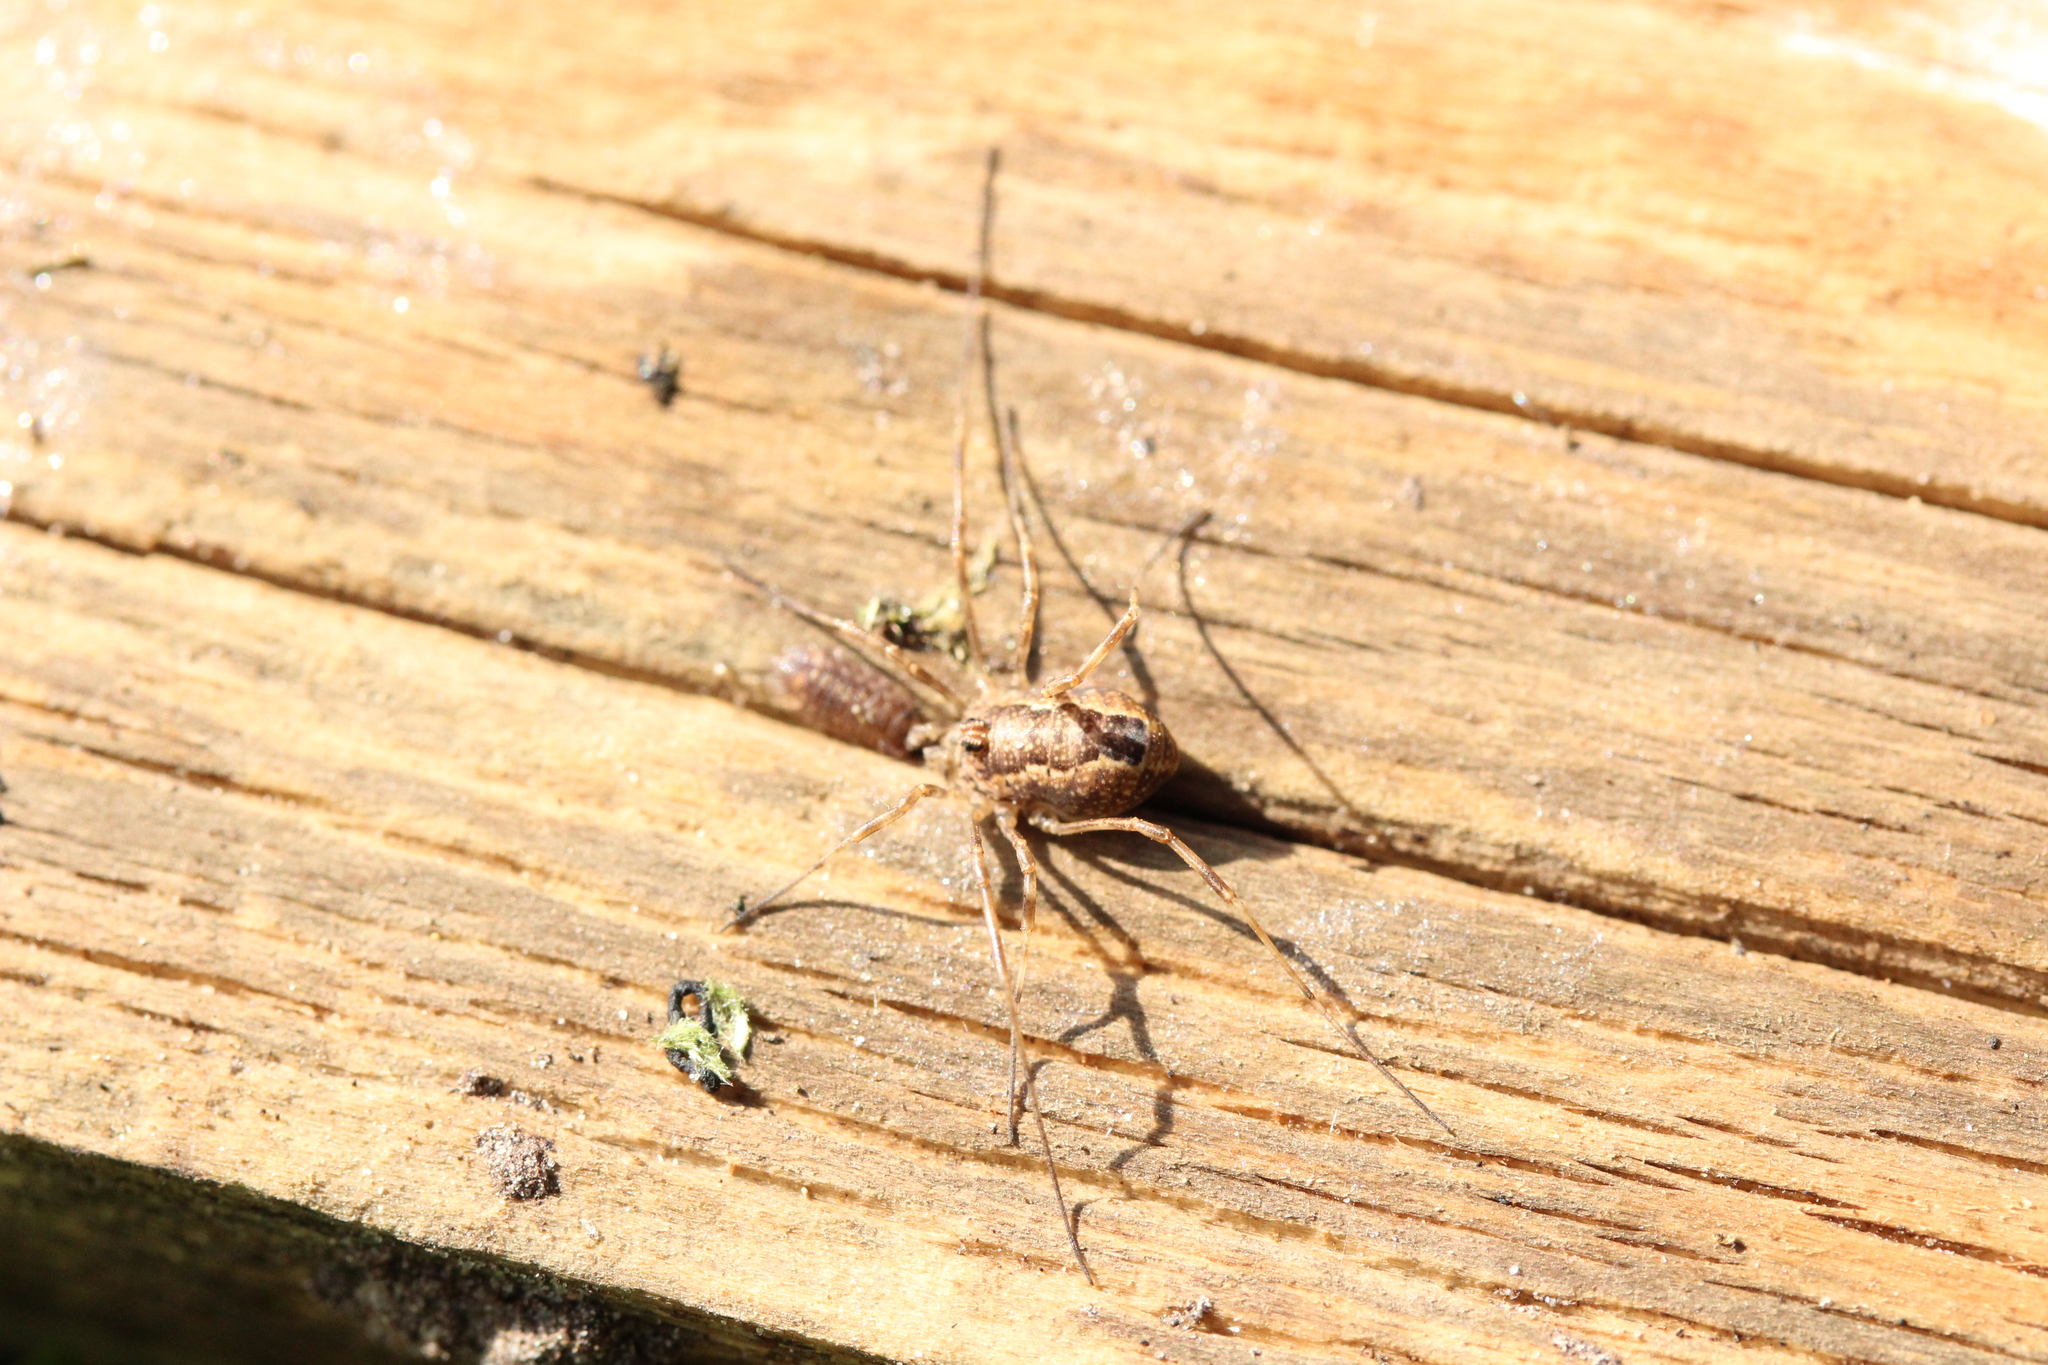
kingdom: Animalia
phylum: Arthropoda
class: Arachnida
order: Opiliones
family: Phalangiidae
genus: Rilaena
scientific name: Rilaena triangularis
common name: Spring harvestman
